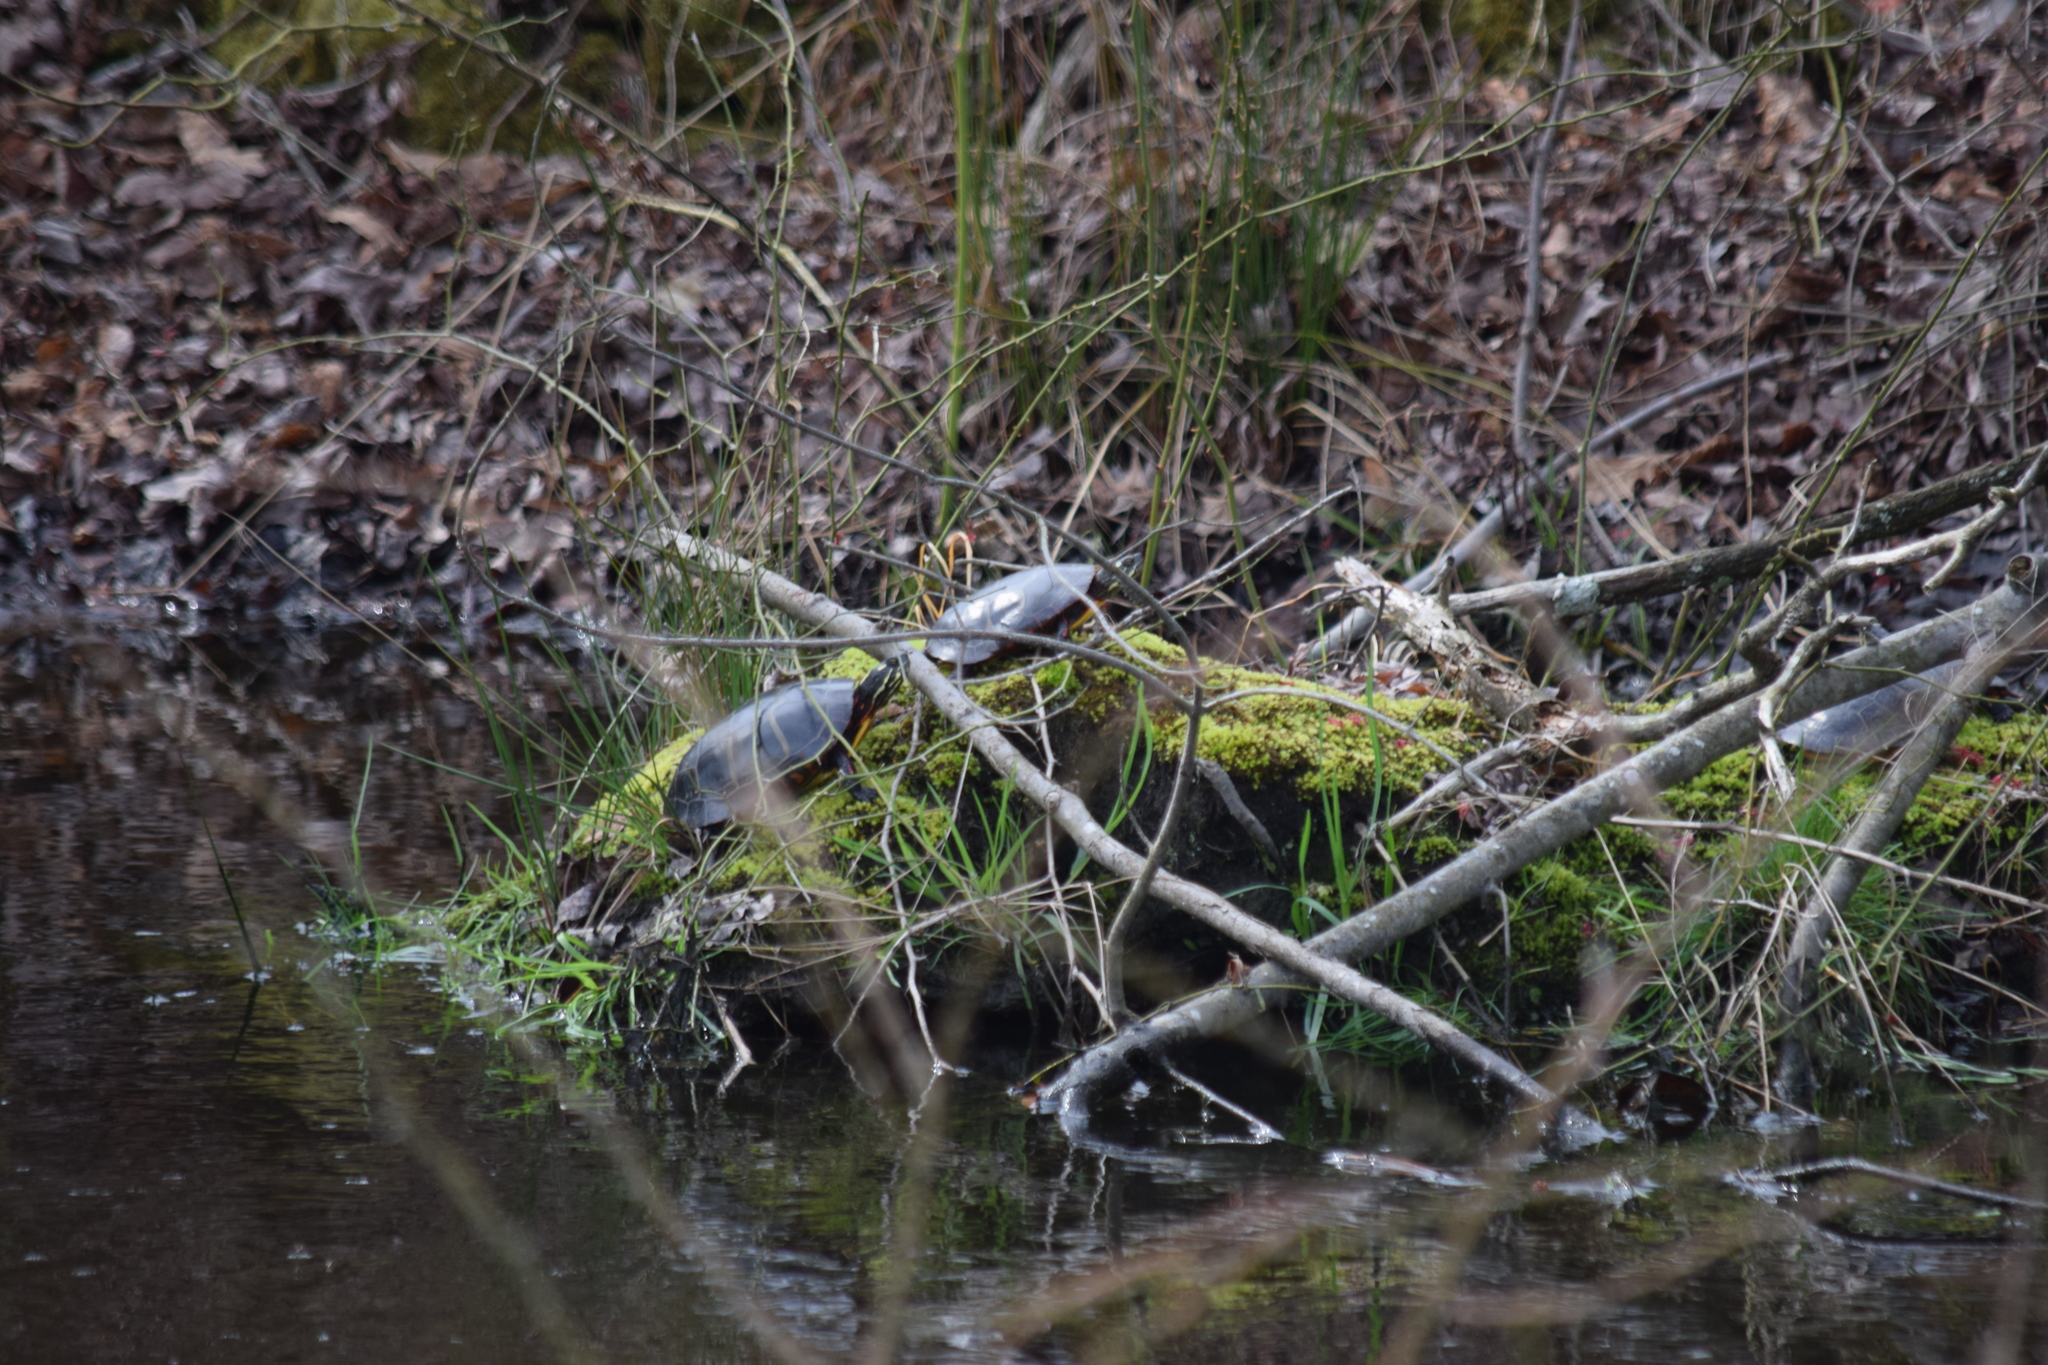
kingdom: Animalia
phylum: Chordata
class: Testudines
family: Emydidae
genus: Chrysemys
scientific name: Chrysemys picta
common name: Painted turtle
